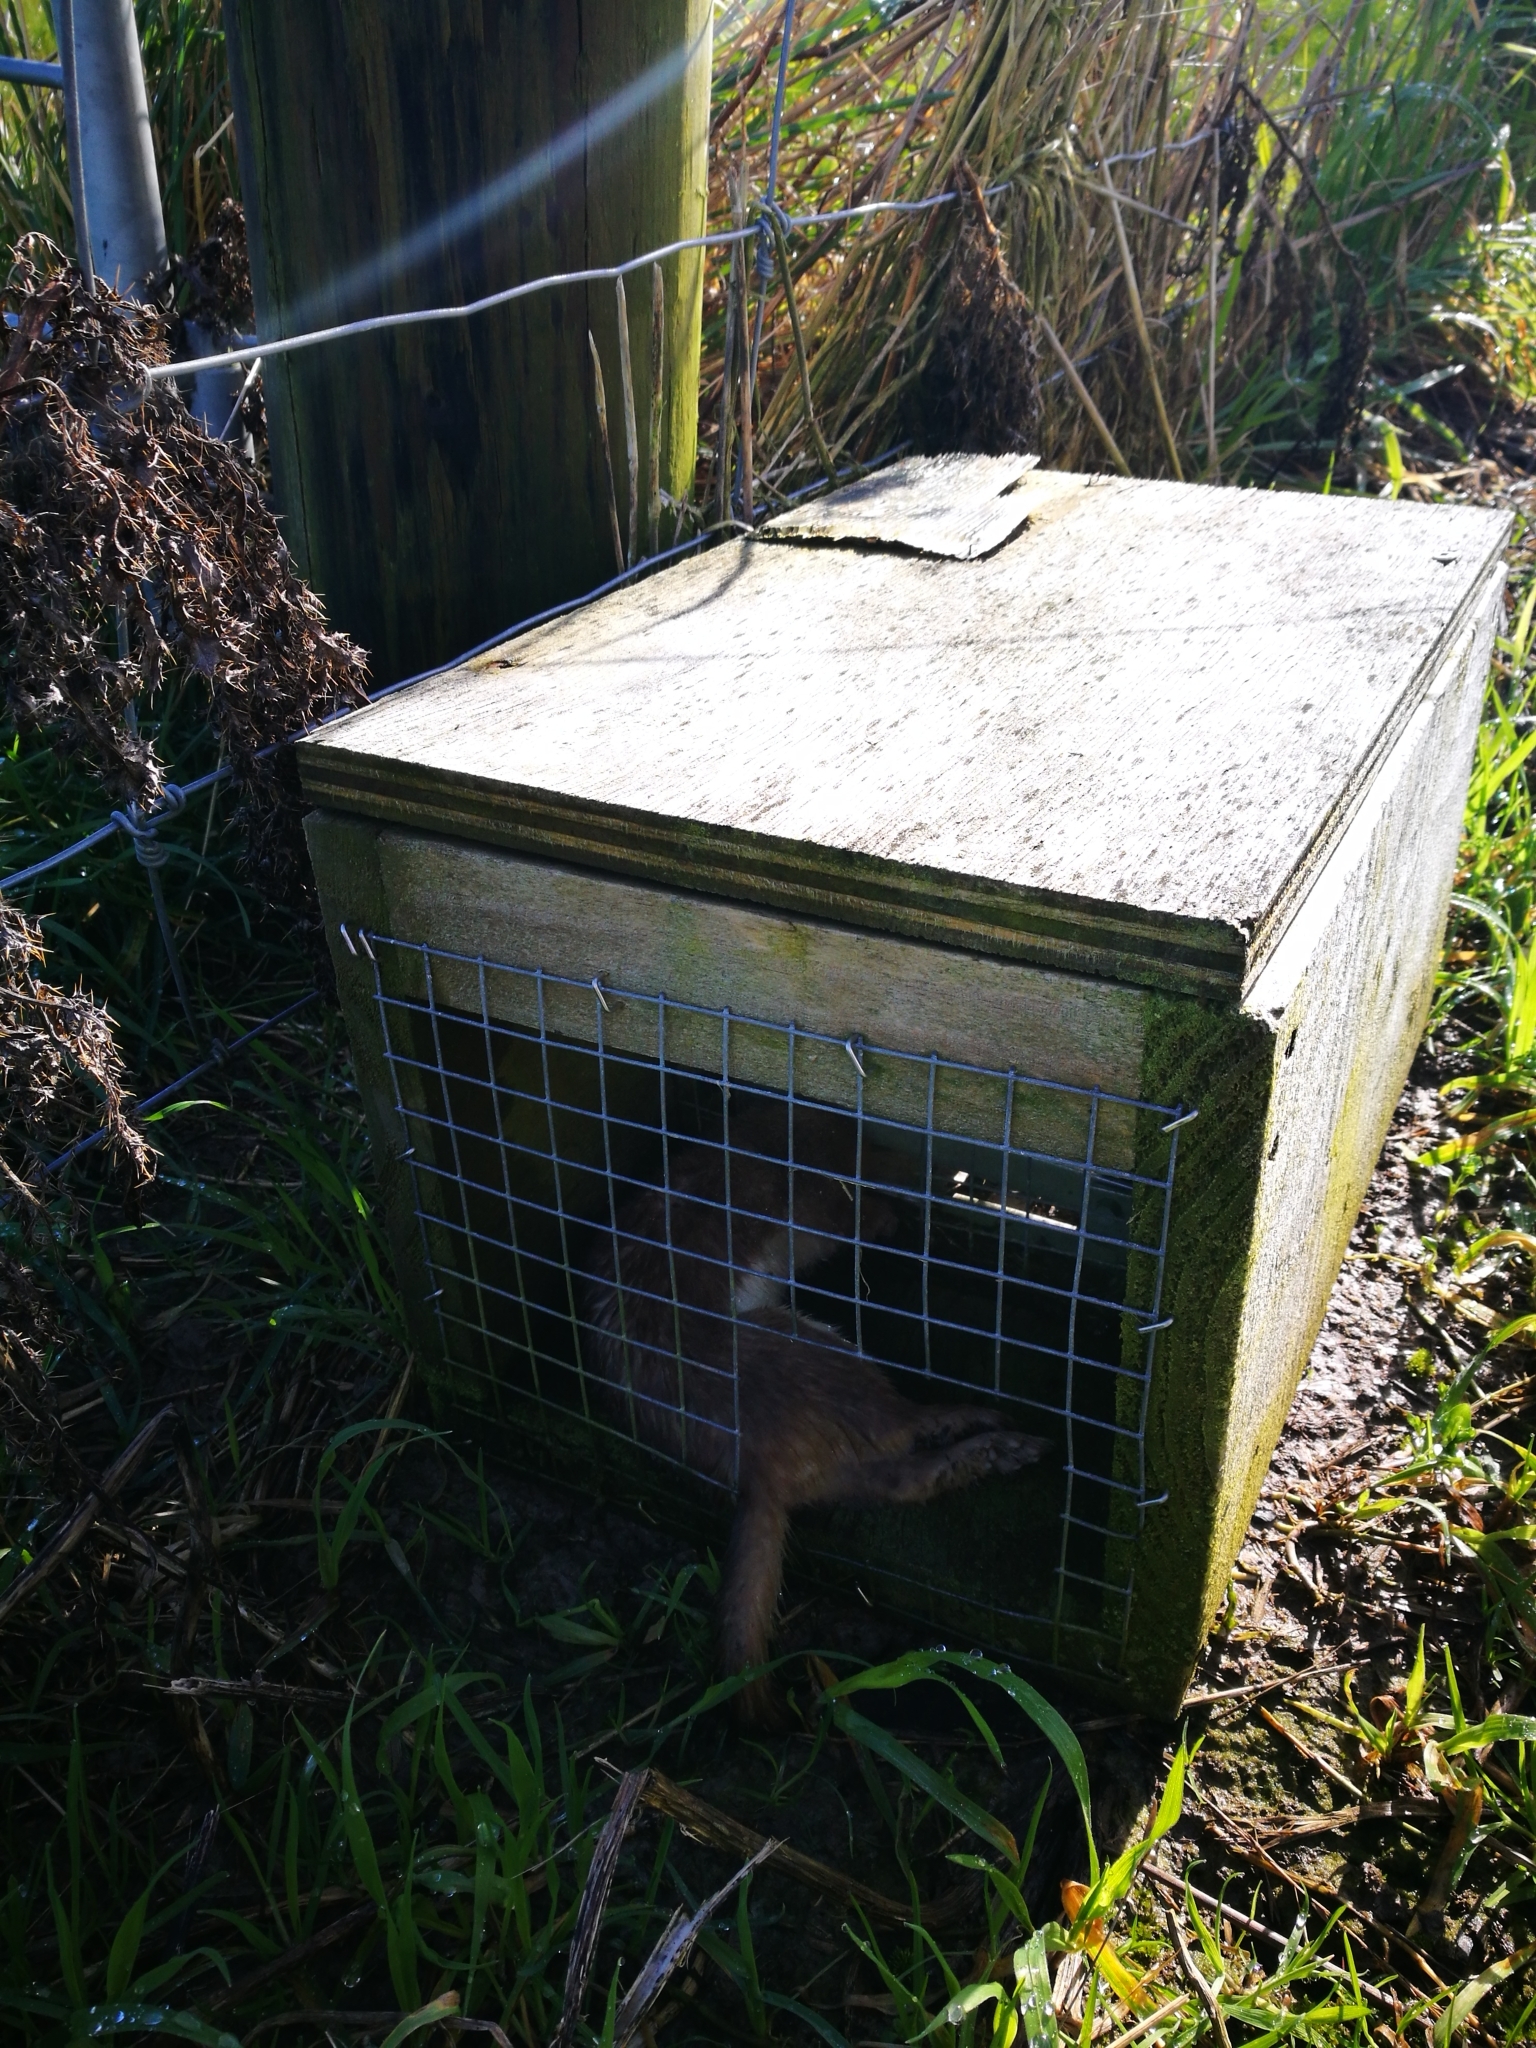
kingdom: Animalia
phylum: Chordata
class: Mammalia
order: Carnivora
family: Mustelidae
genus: Mustela
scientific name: Mustela erminea
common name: Stoat
